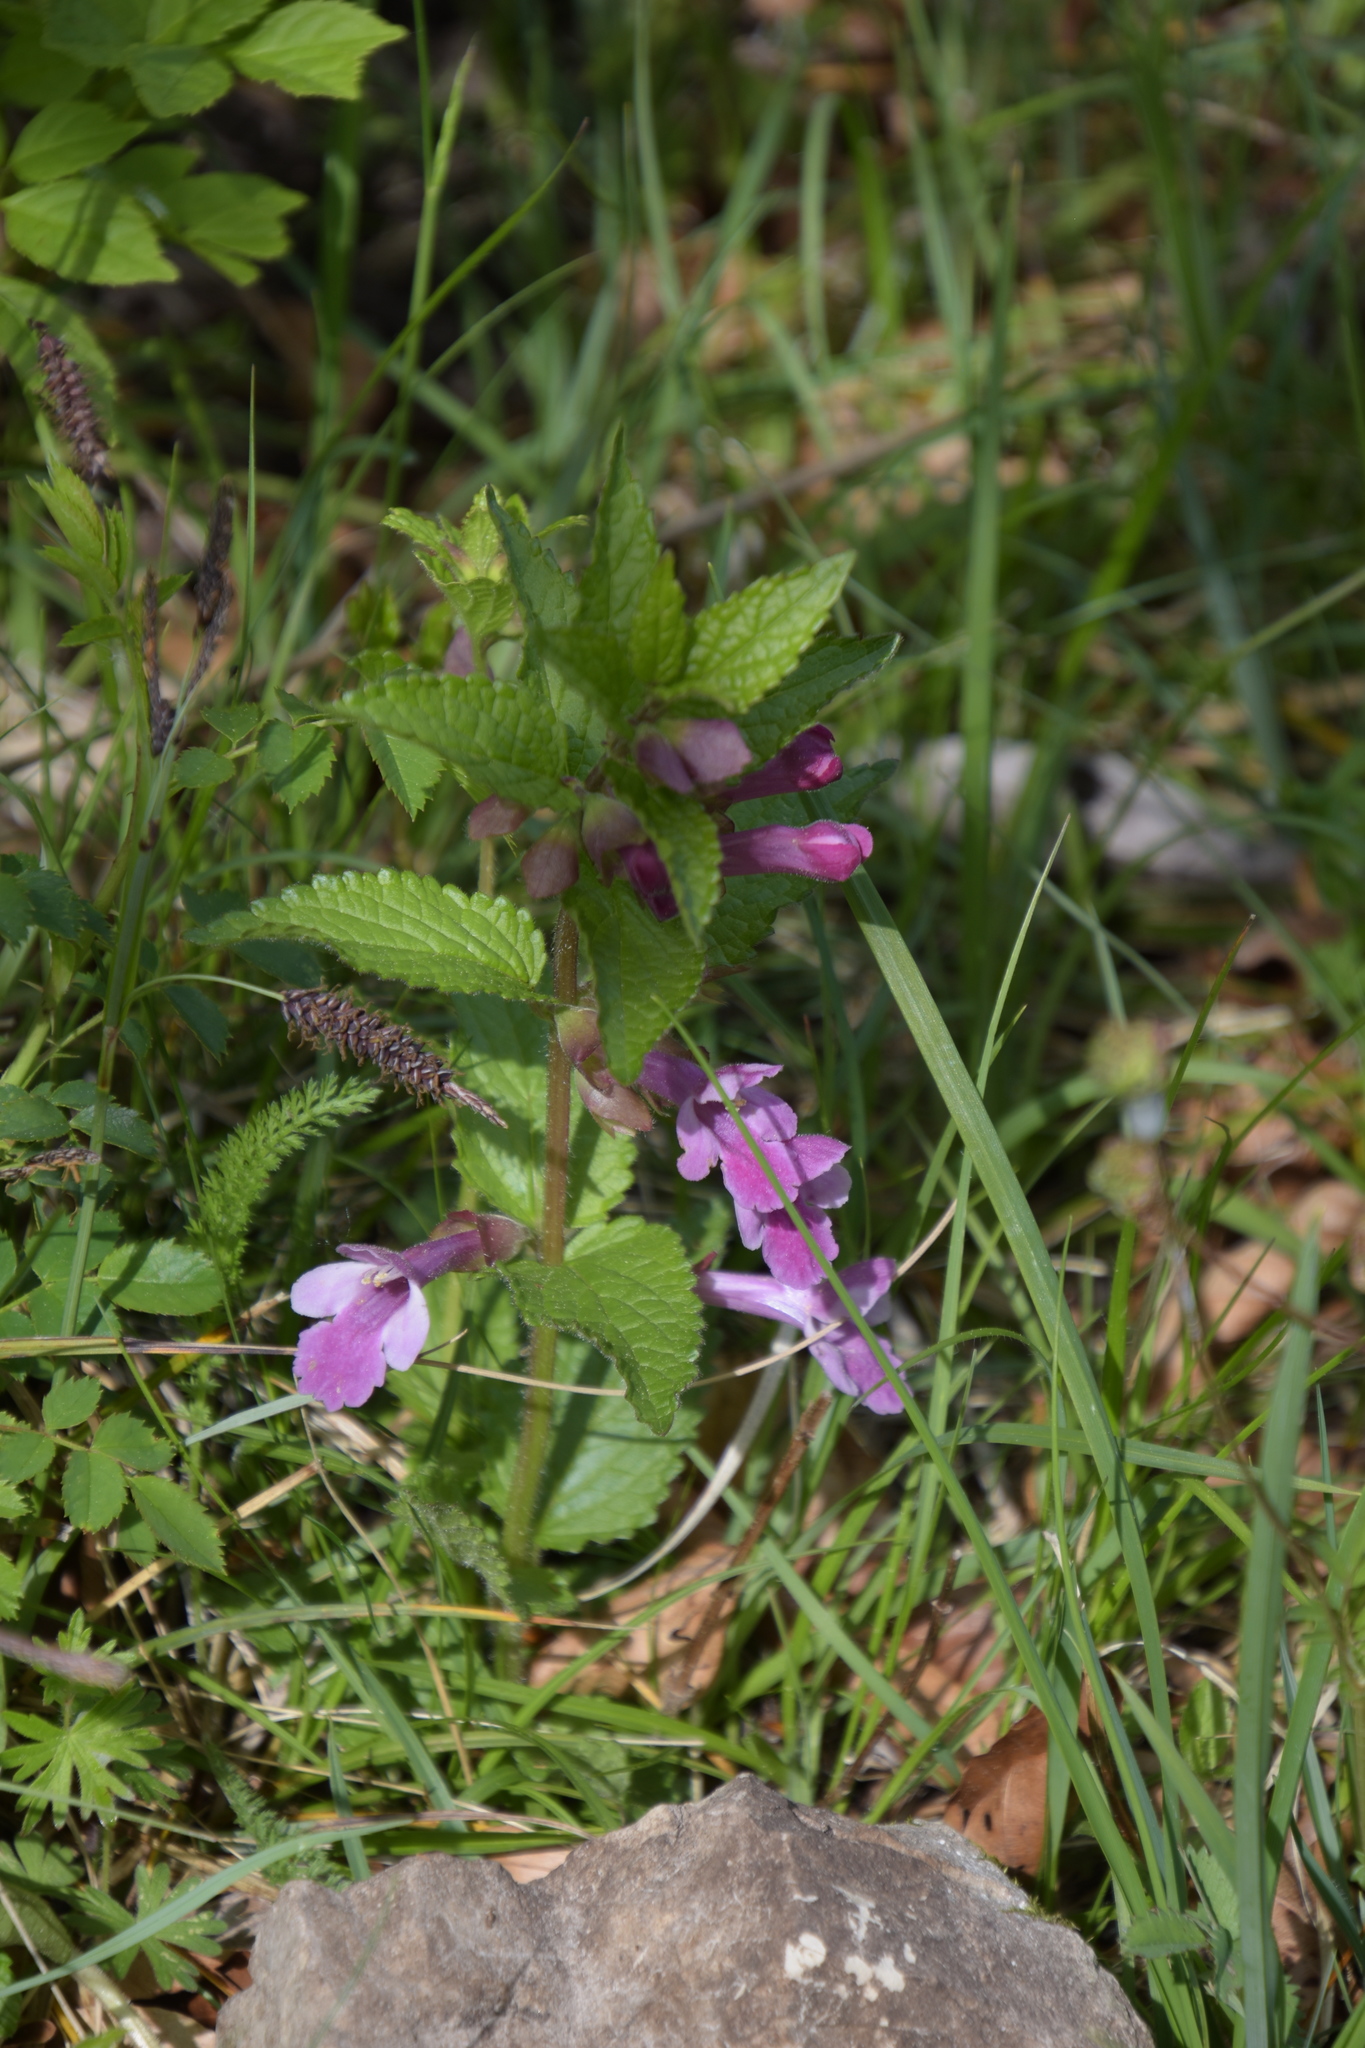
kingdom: Plantae
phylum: Tracheophyta
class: Magnoliopsida
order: Lamiales
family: Lamiaceae
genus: Melittis
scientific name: Melittis melissophyllum
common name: Bastard balm
